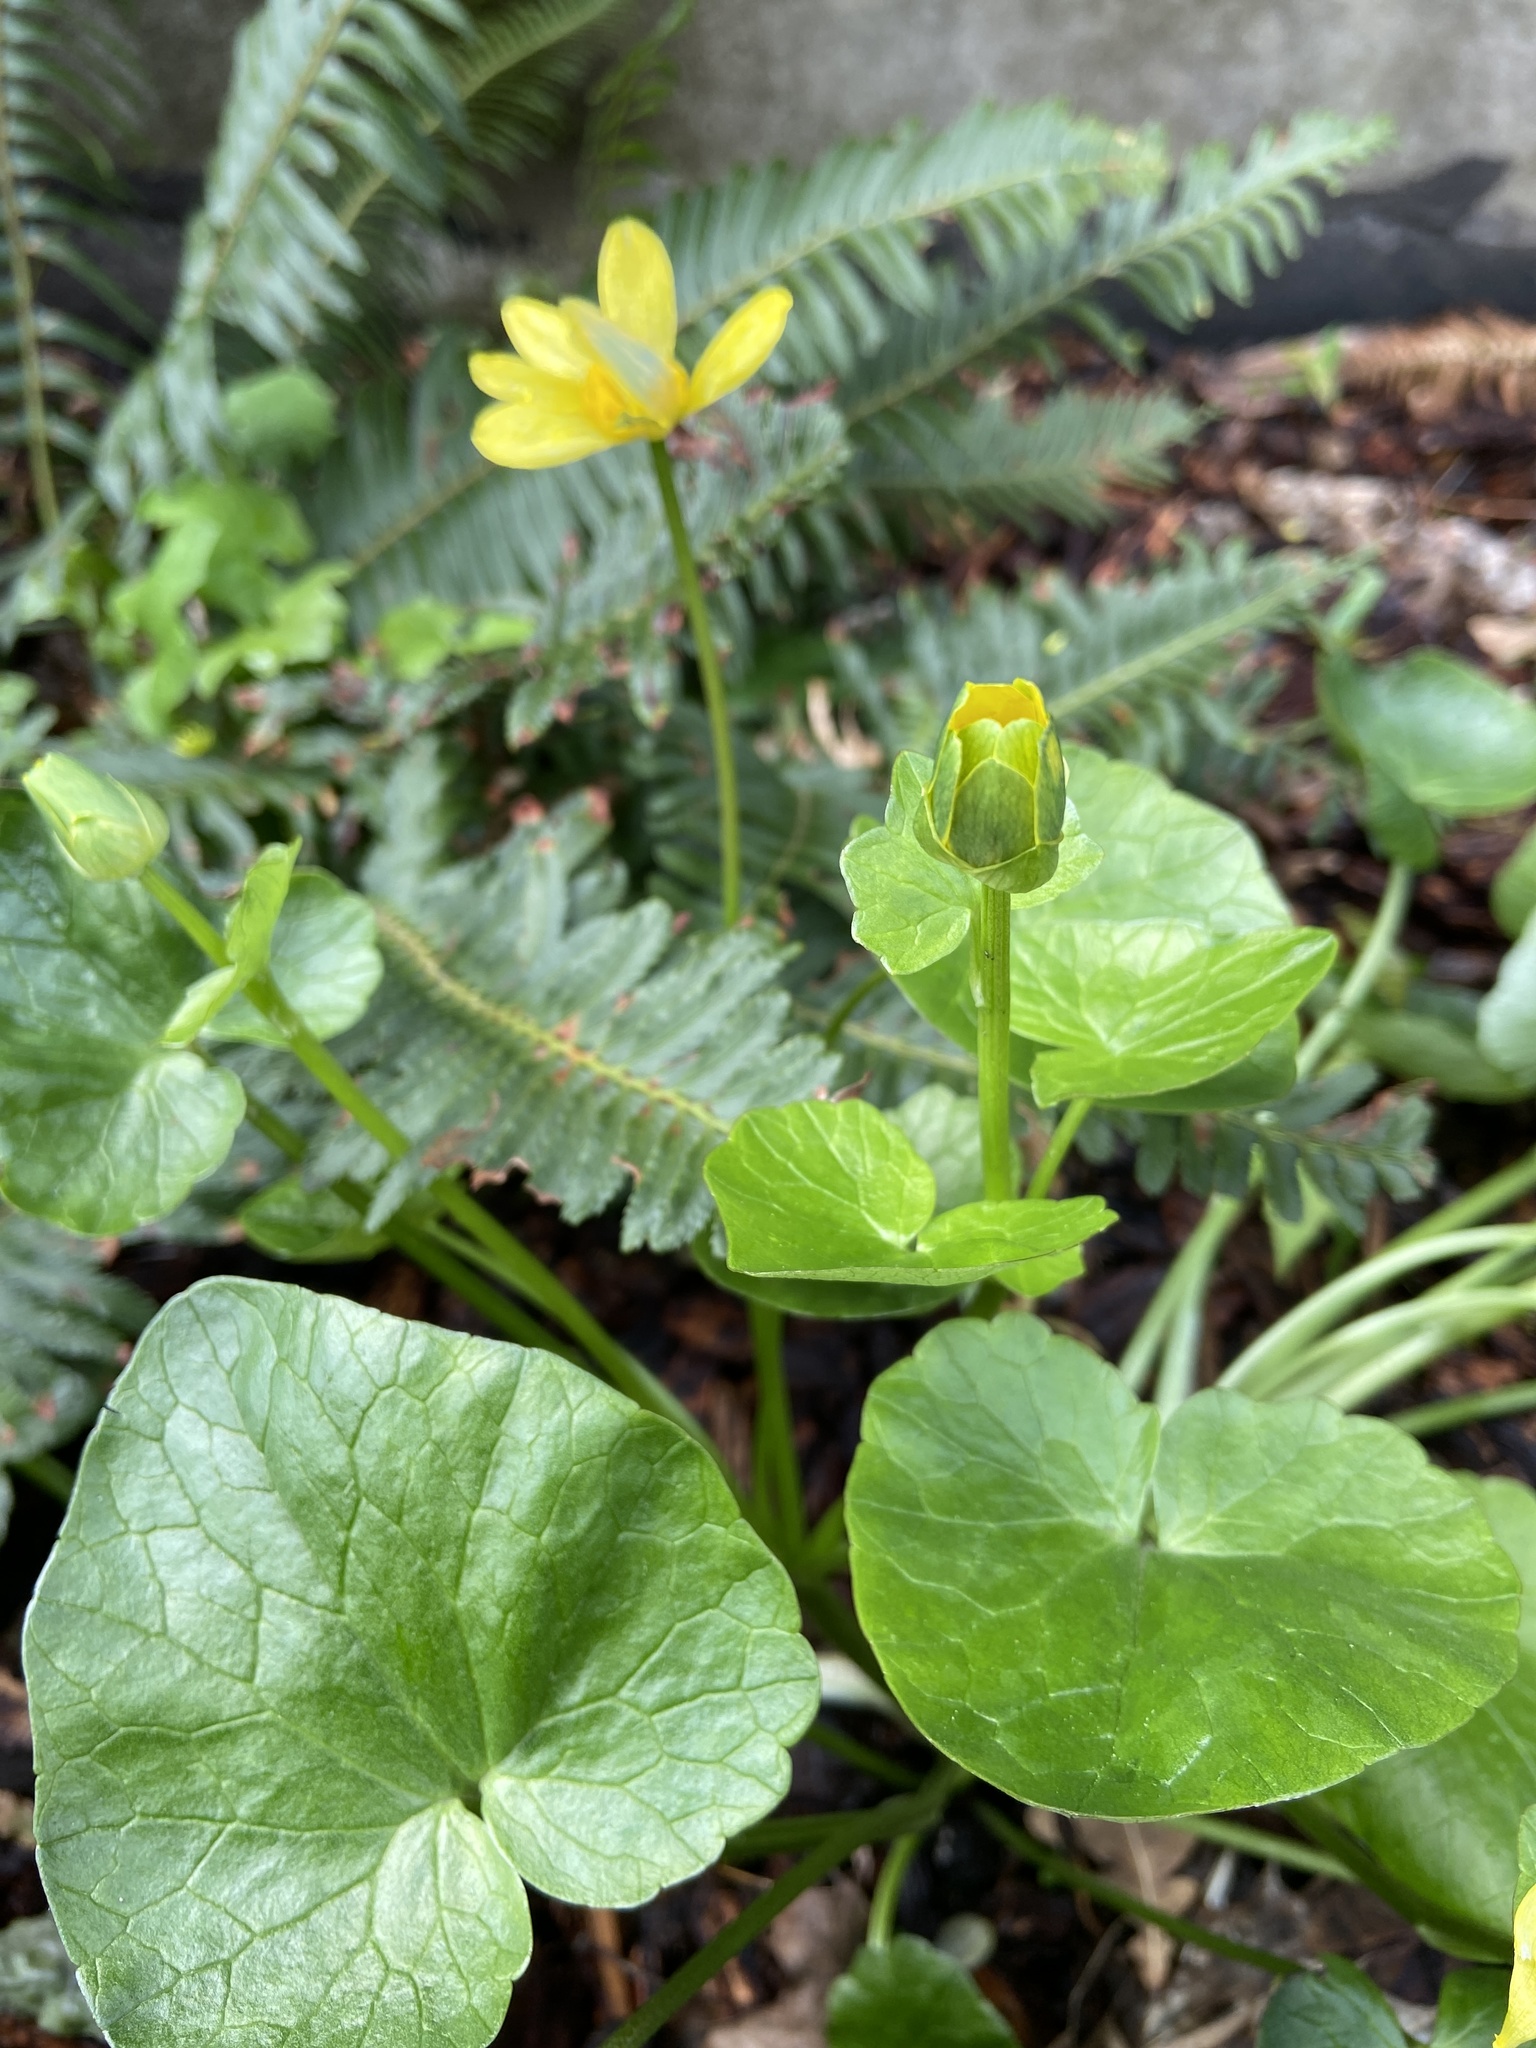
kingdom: Plantae
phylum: Tracheophyta
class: Magnoliopsida
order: Ranunculales
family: Ranunculaceae
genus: Ficaria
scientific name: Ficaria verna
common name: Lesser celandine
